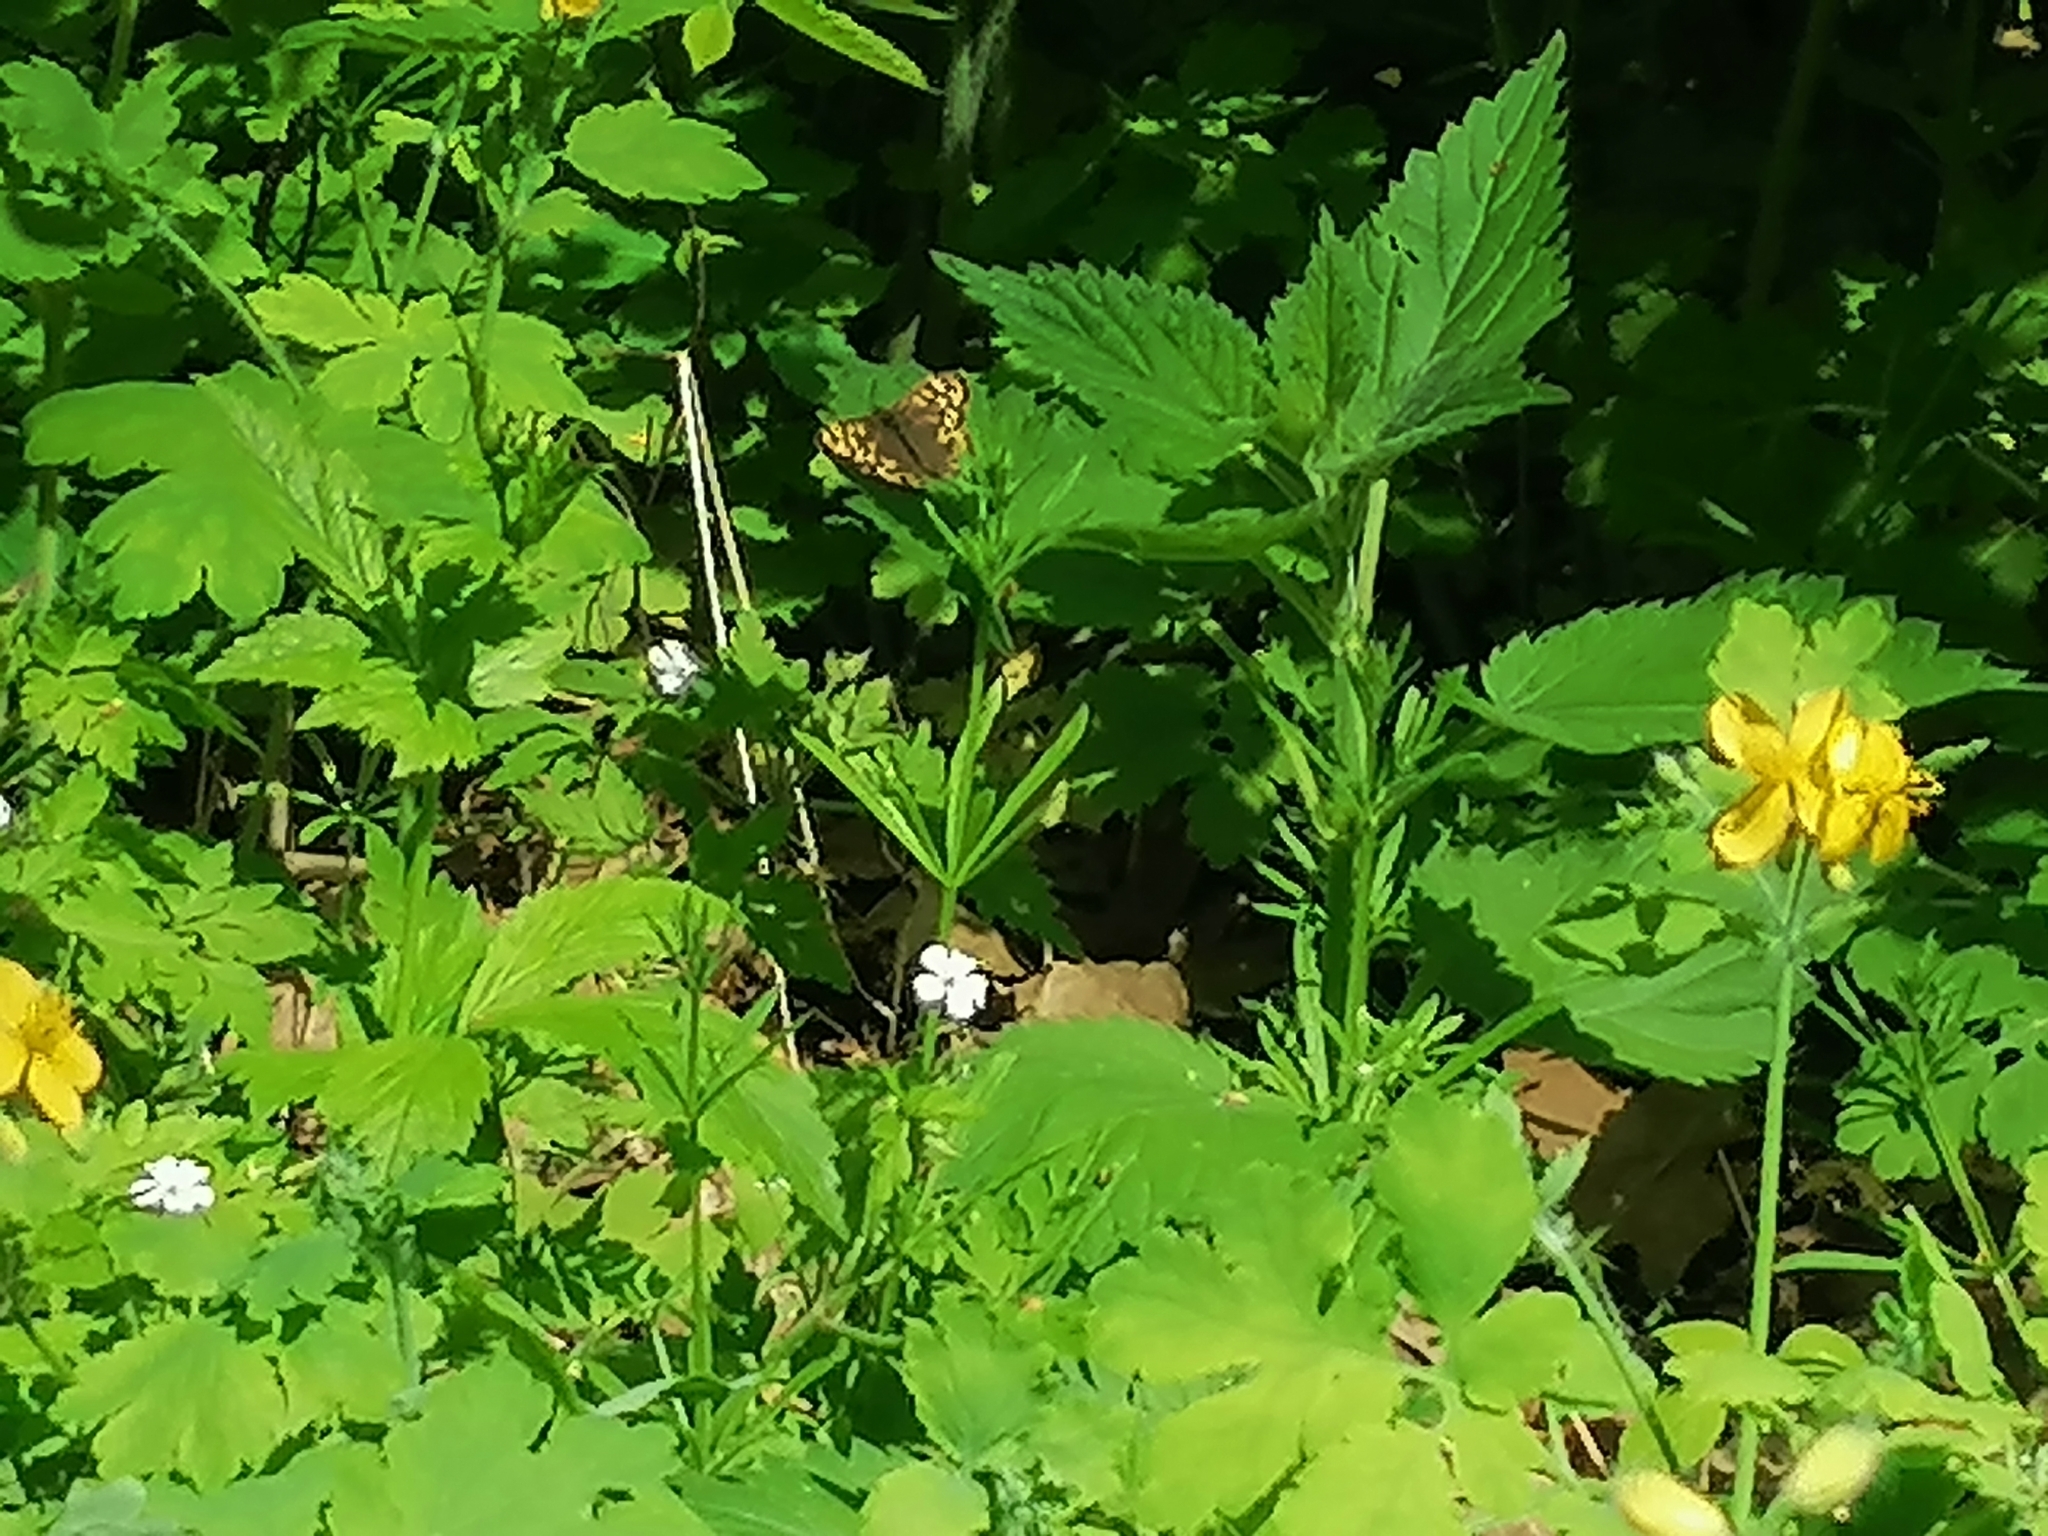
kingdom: Animalia
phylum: Arthropoda
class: Insecta
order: Lepidoptera
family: Nymphalidae
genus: Pararge
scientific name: Pararge aegeria
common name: Speckled wood
